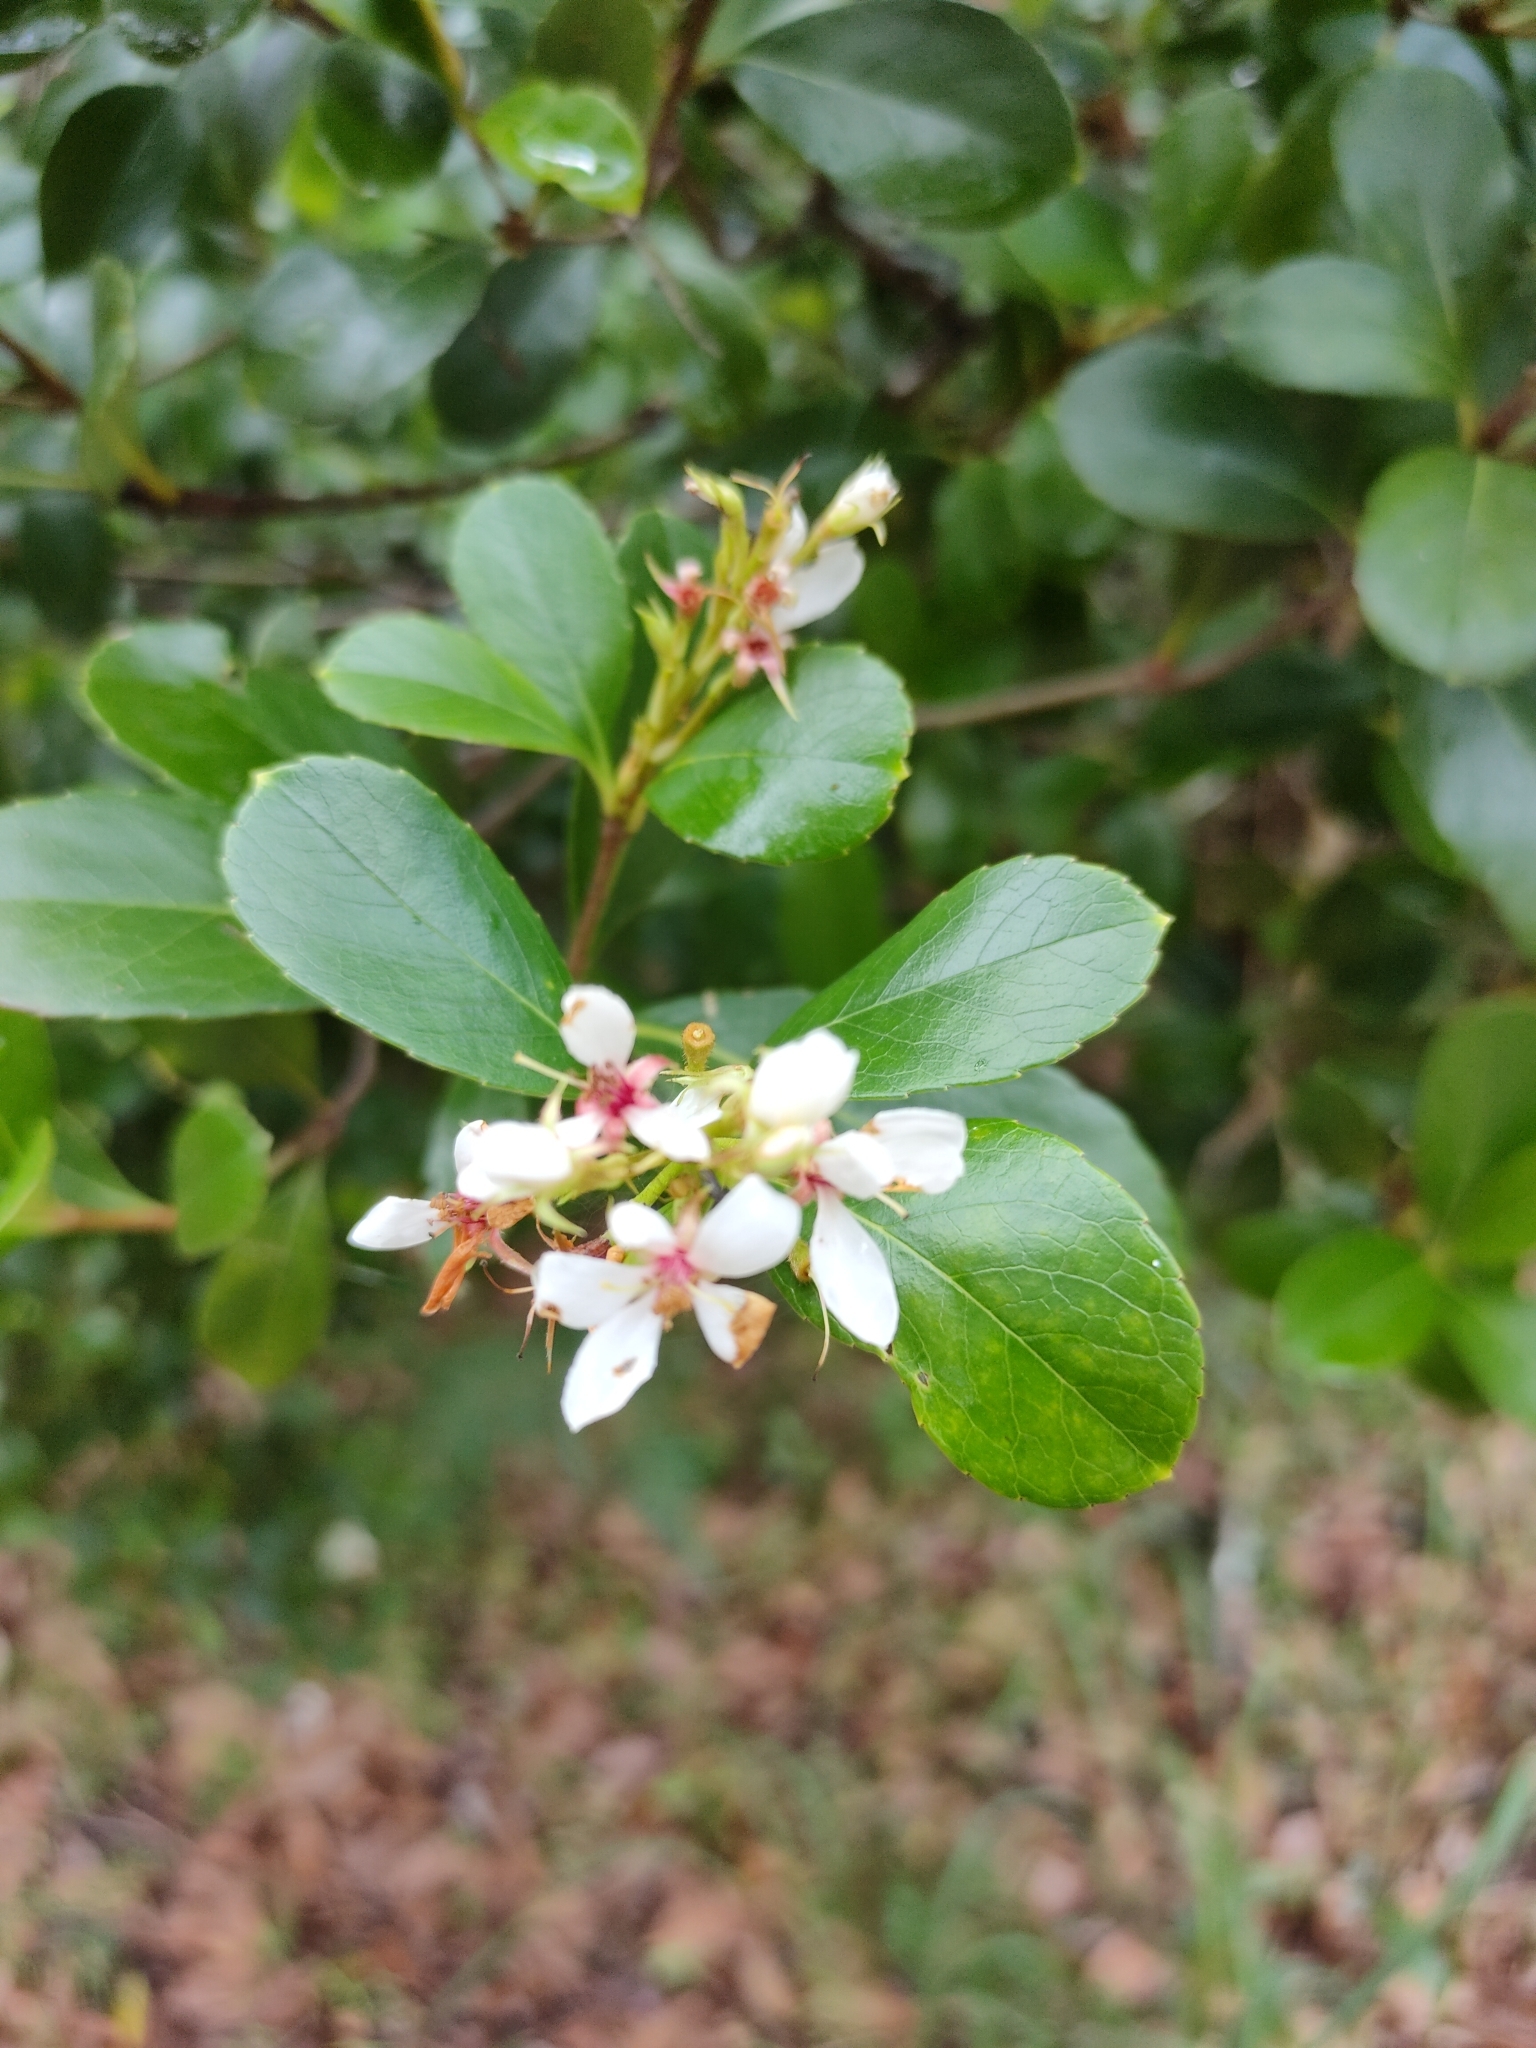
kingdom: Plantae
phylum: Tracheophyta
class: Magnoliopsida
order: Rosales
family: Rosaceae
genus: Rhaphiolepis
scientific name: Rhaphiolepis indica
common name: India-hawthorn
